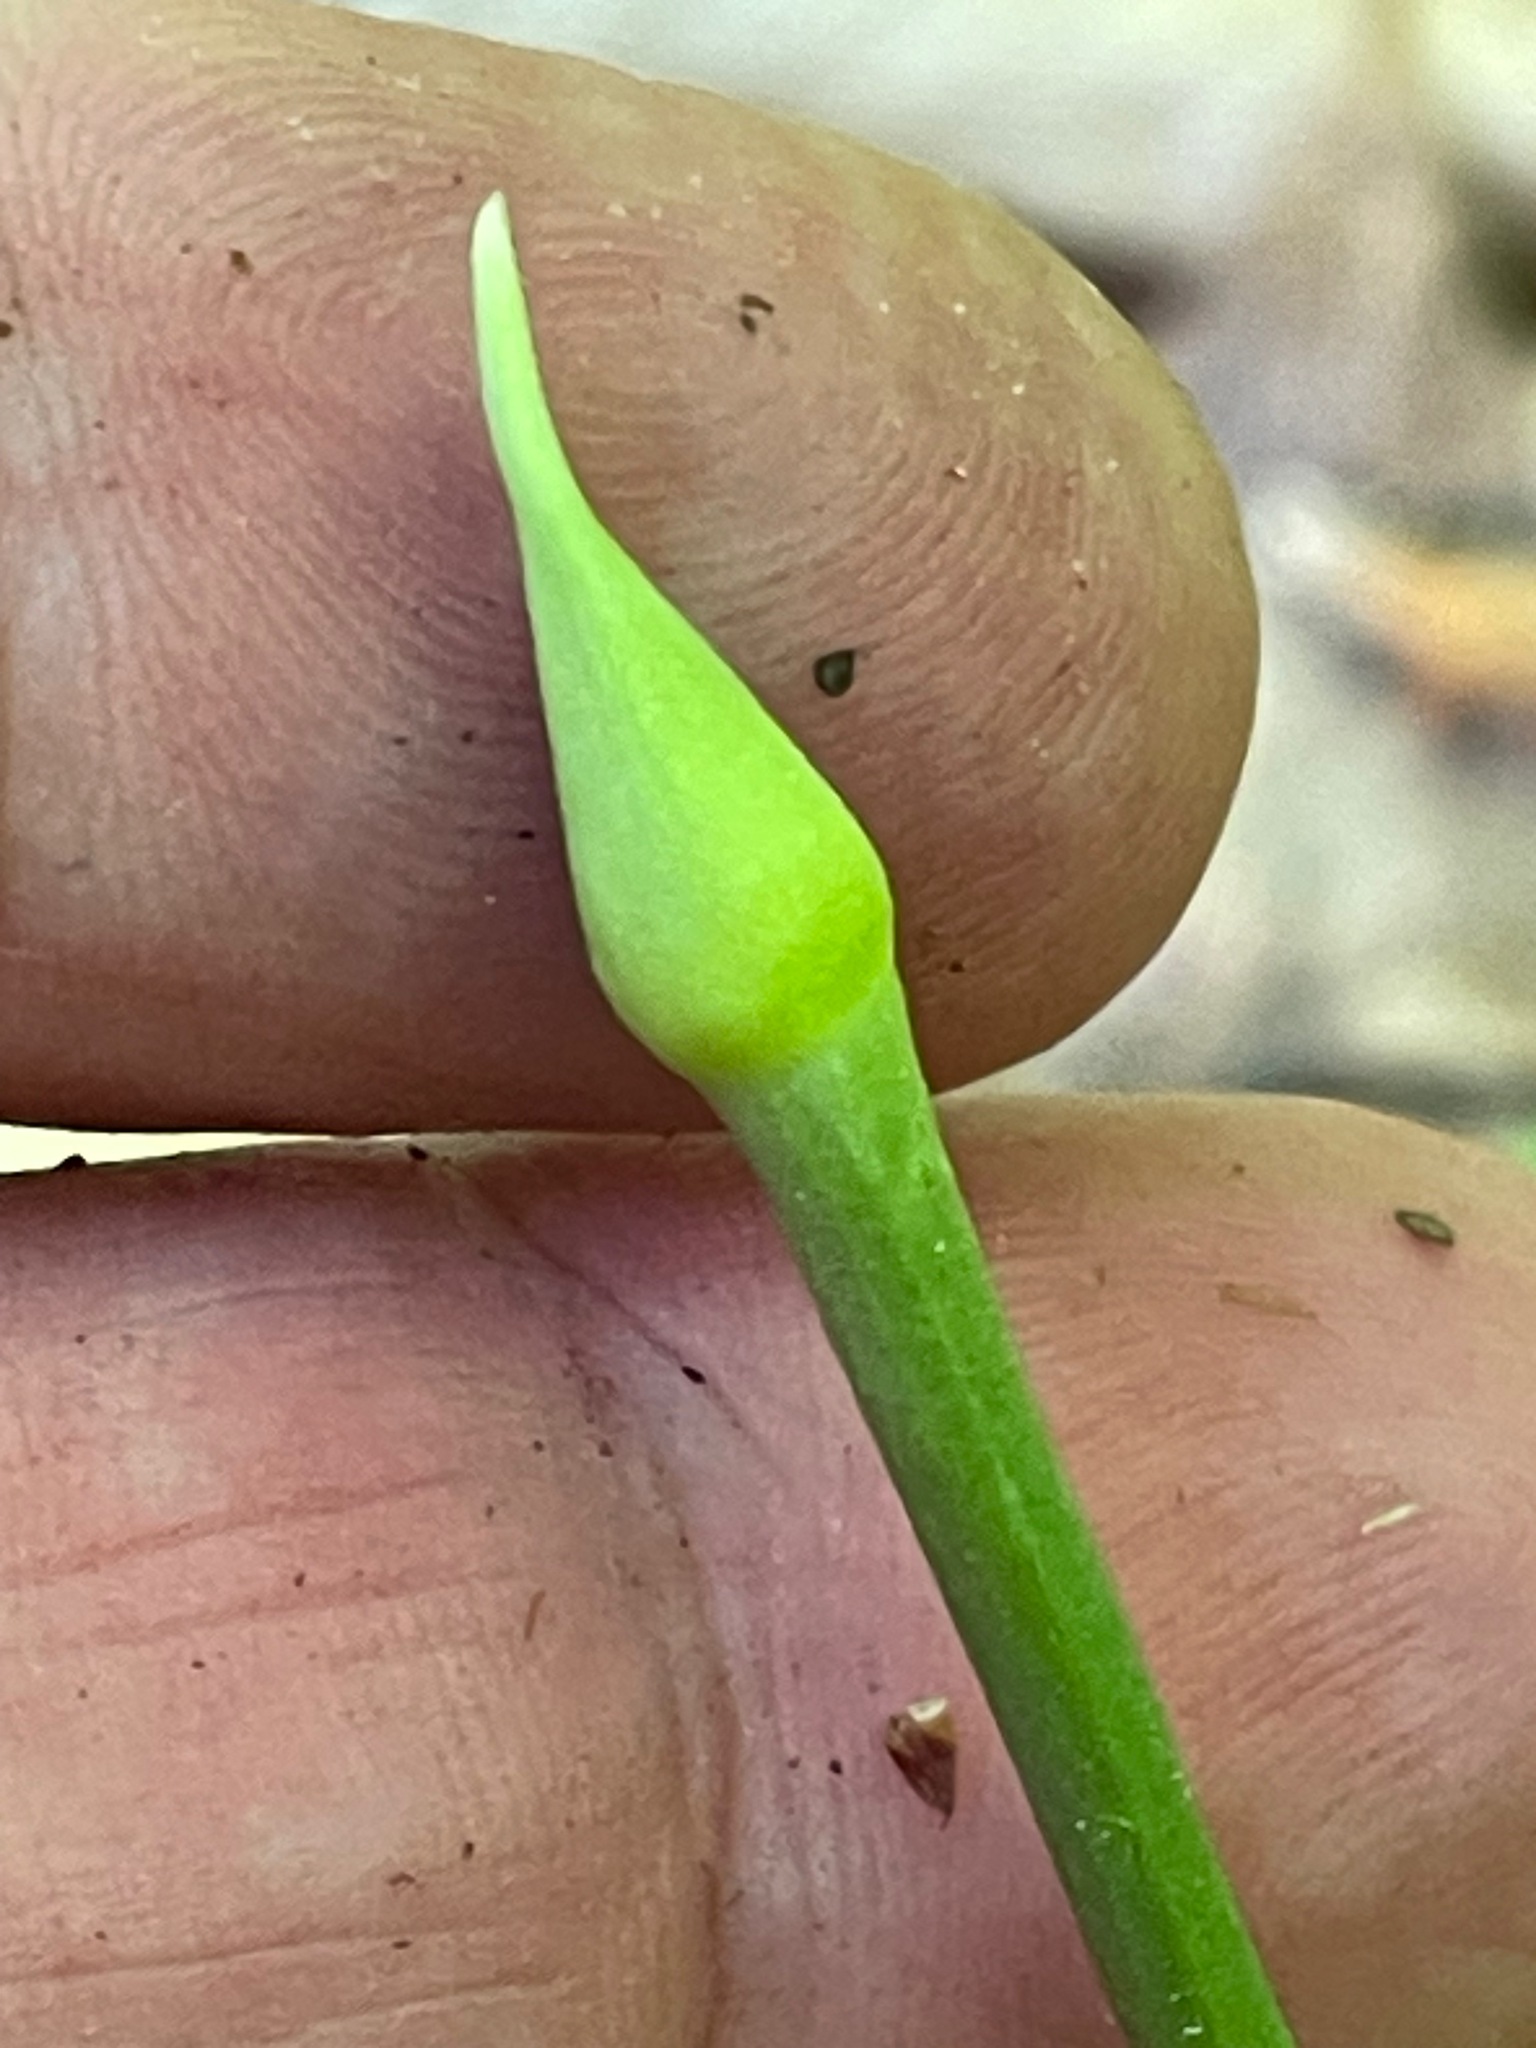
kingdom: Plantae
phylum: Tracheophyta
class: Liliopsida
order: Asparagales
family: Amaryllidaceae
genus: Allium
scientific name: Allium tricoccum
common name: Ramp
